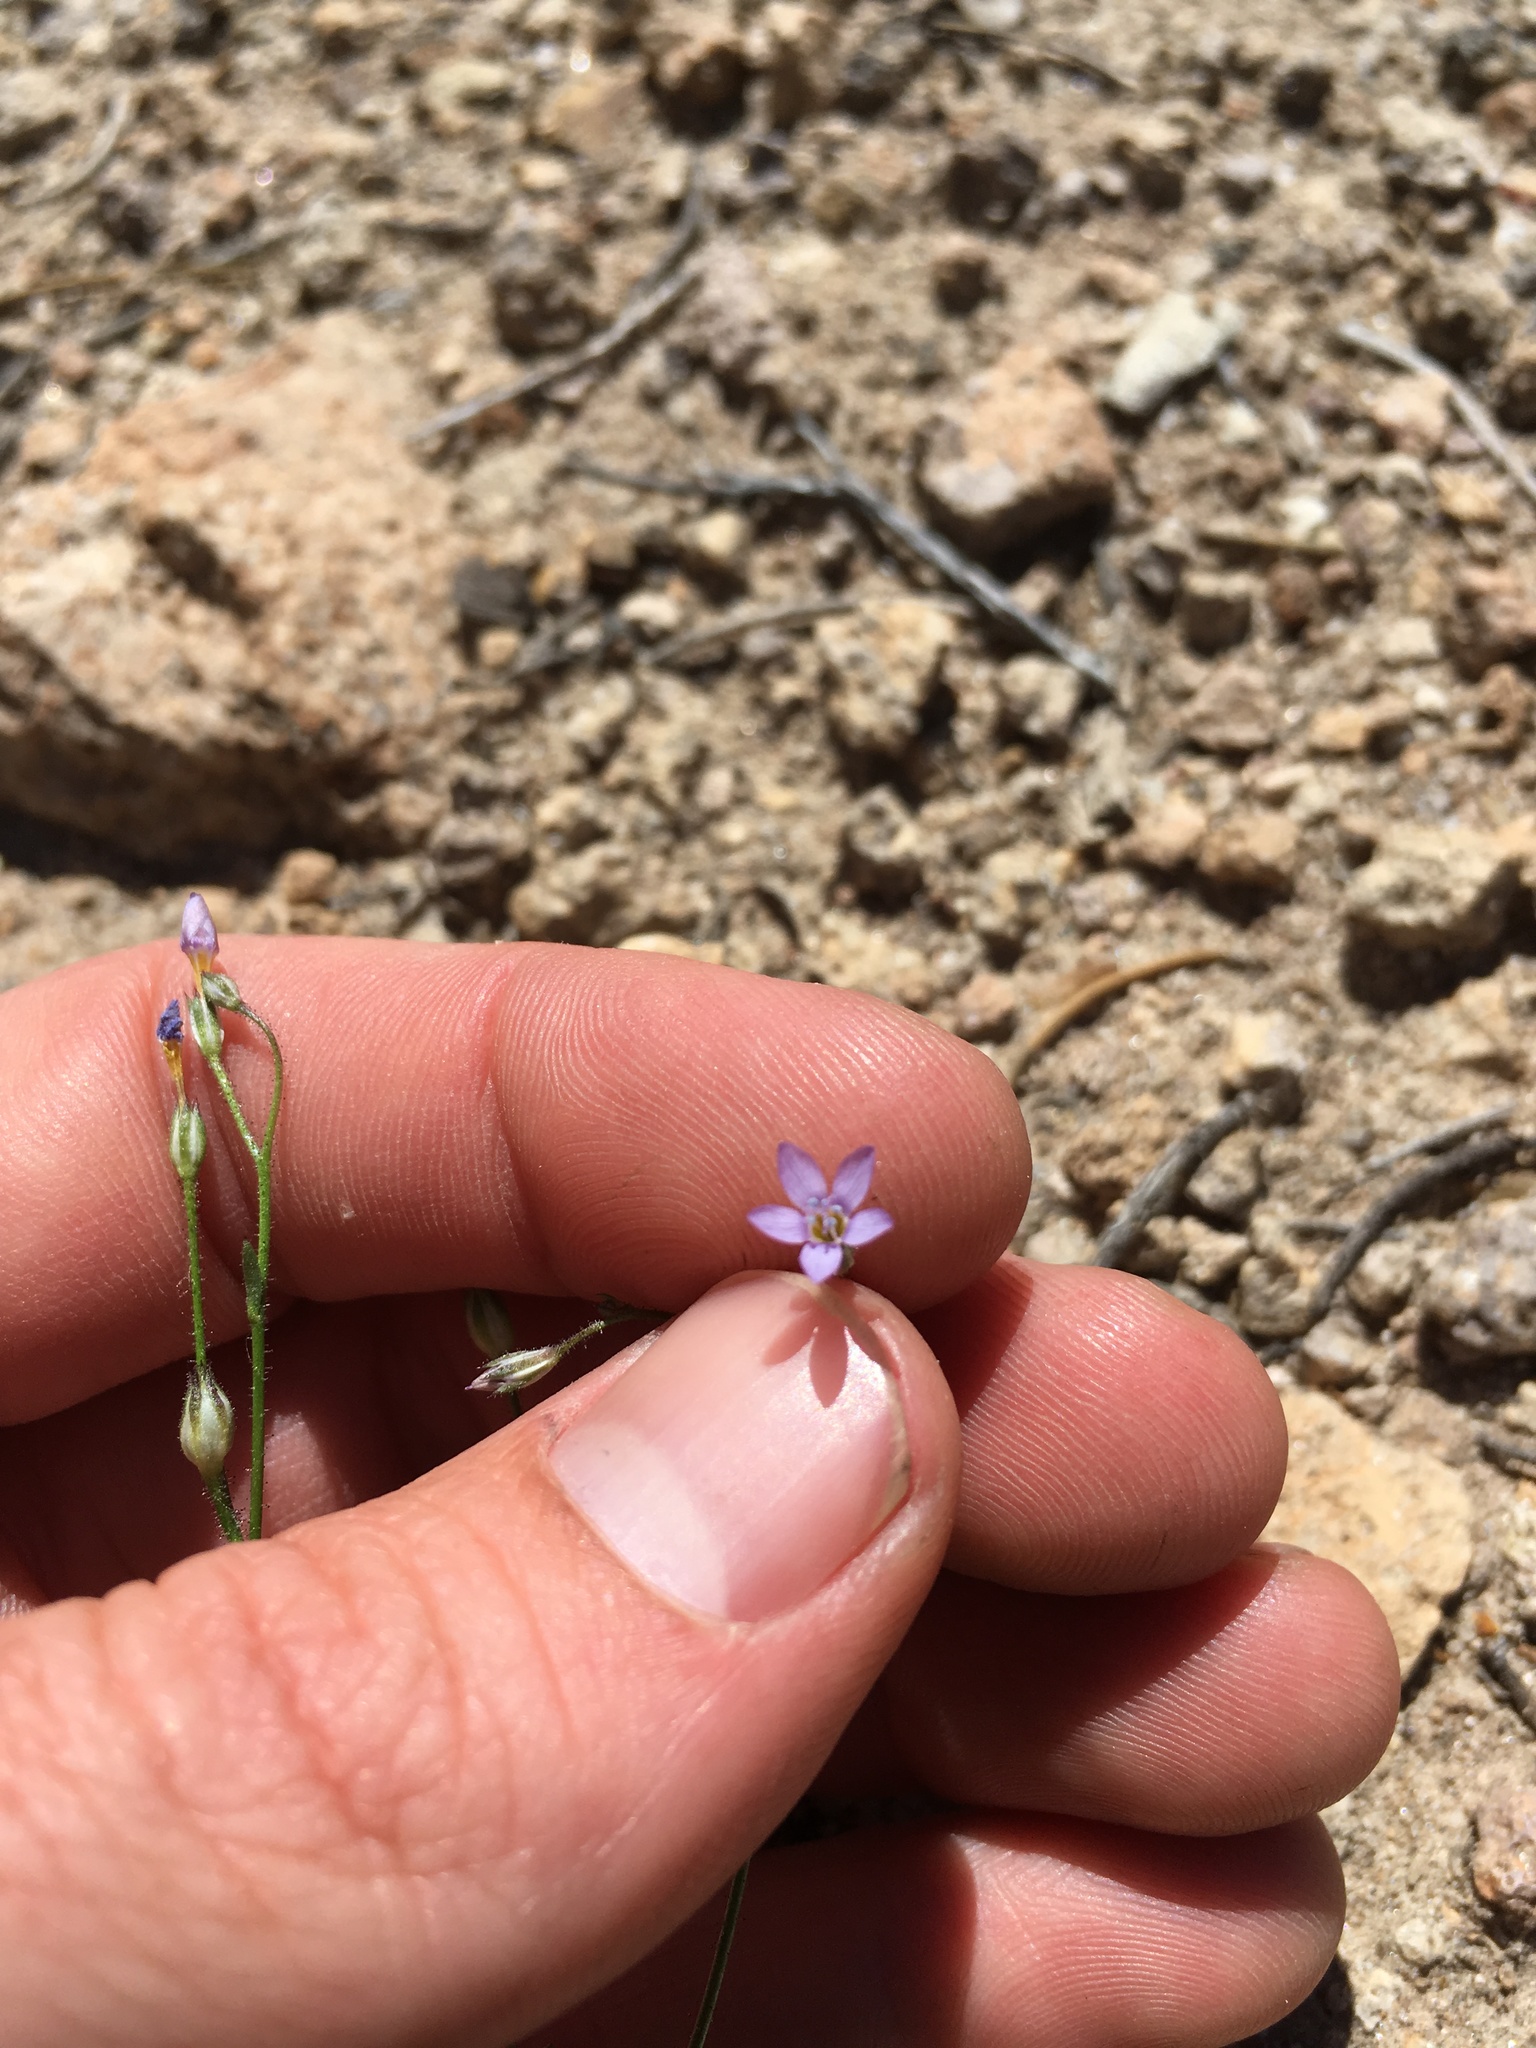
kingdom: Plantae
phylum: Tracheophyta
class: Magnoliopsida
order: Ericales
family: Polemoniaceae
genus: Gilia
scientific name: Gilia ophthalmoides
